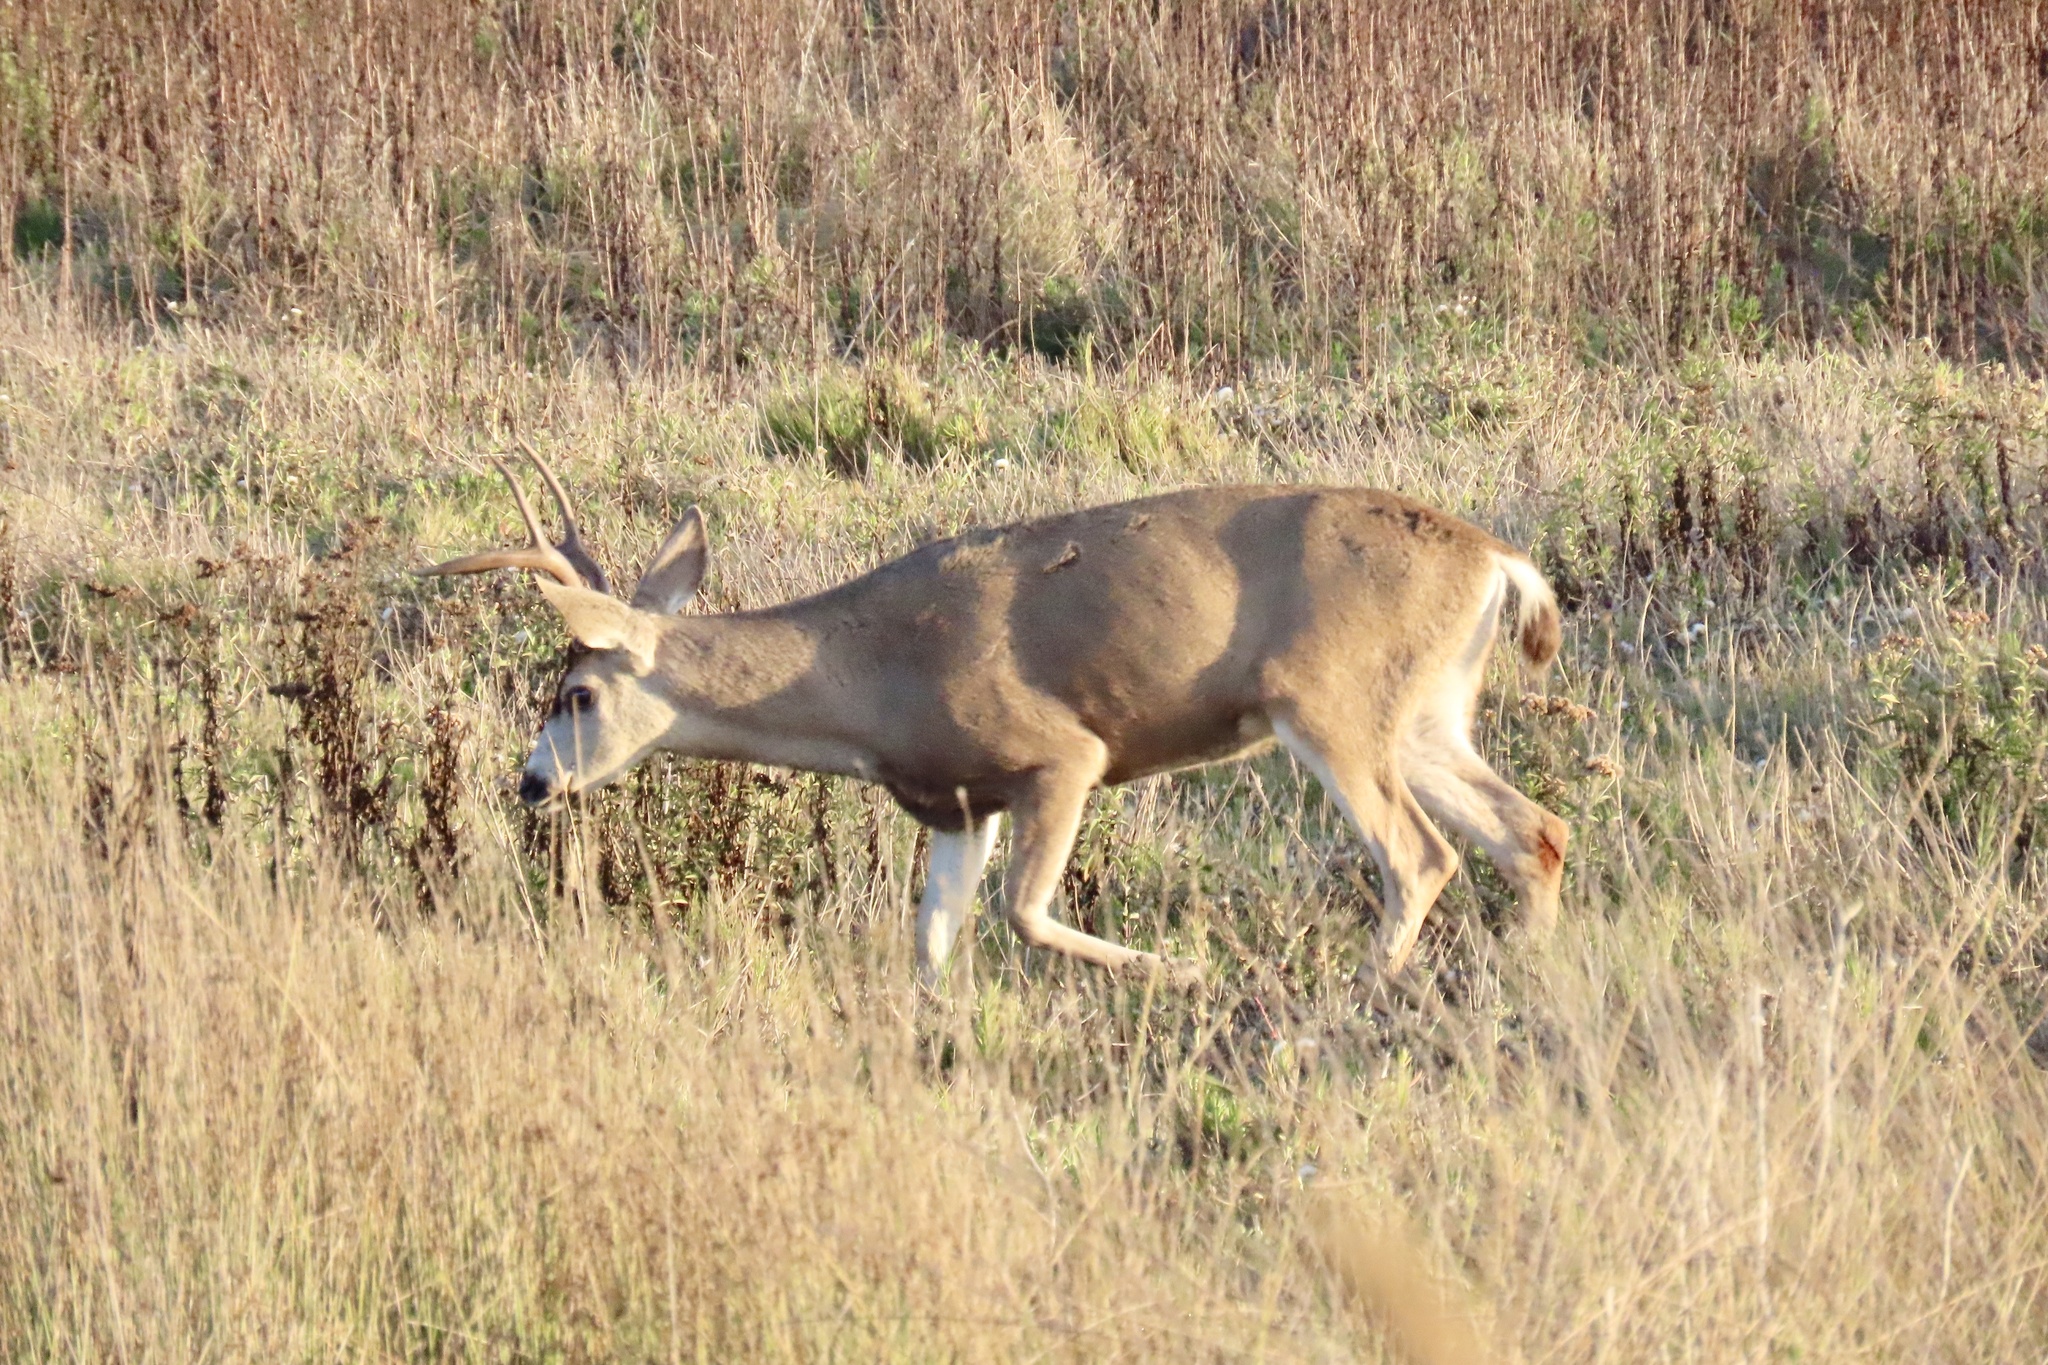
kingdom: Animalia
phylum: Chordata
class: Mammalia
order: Artiodactyla
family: Cervidae
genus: Odocoileus
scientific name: Odocoileus hemionus
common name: Mule deer
